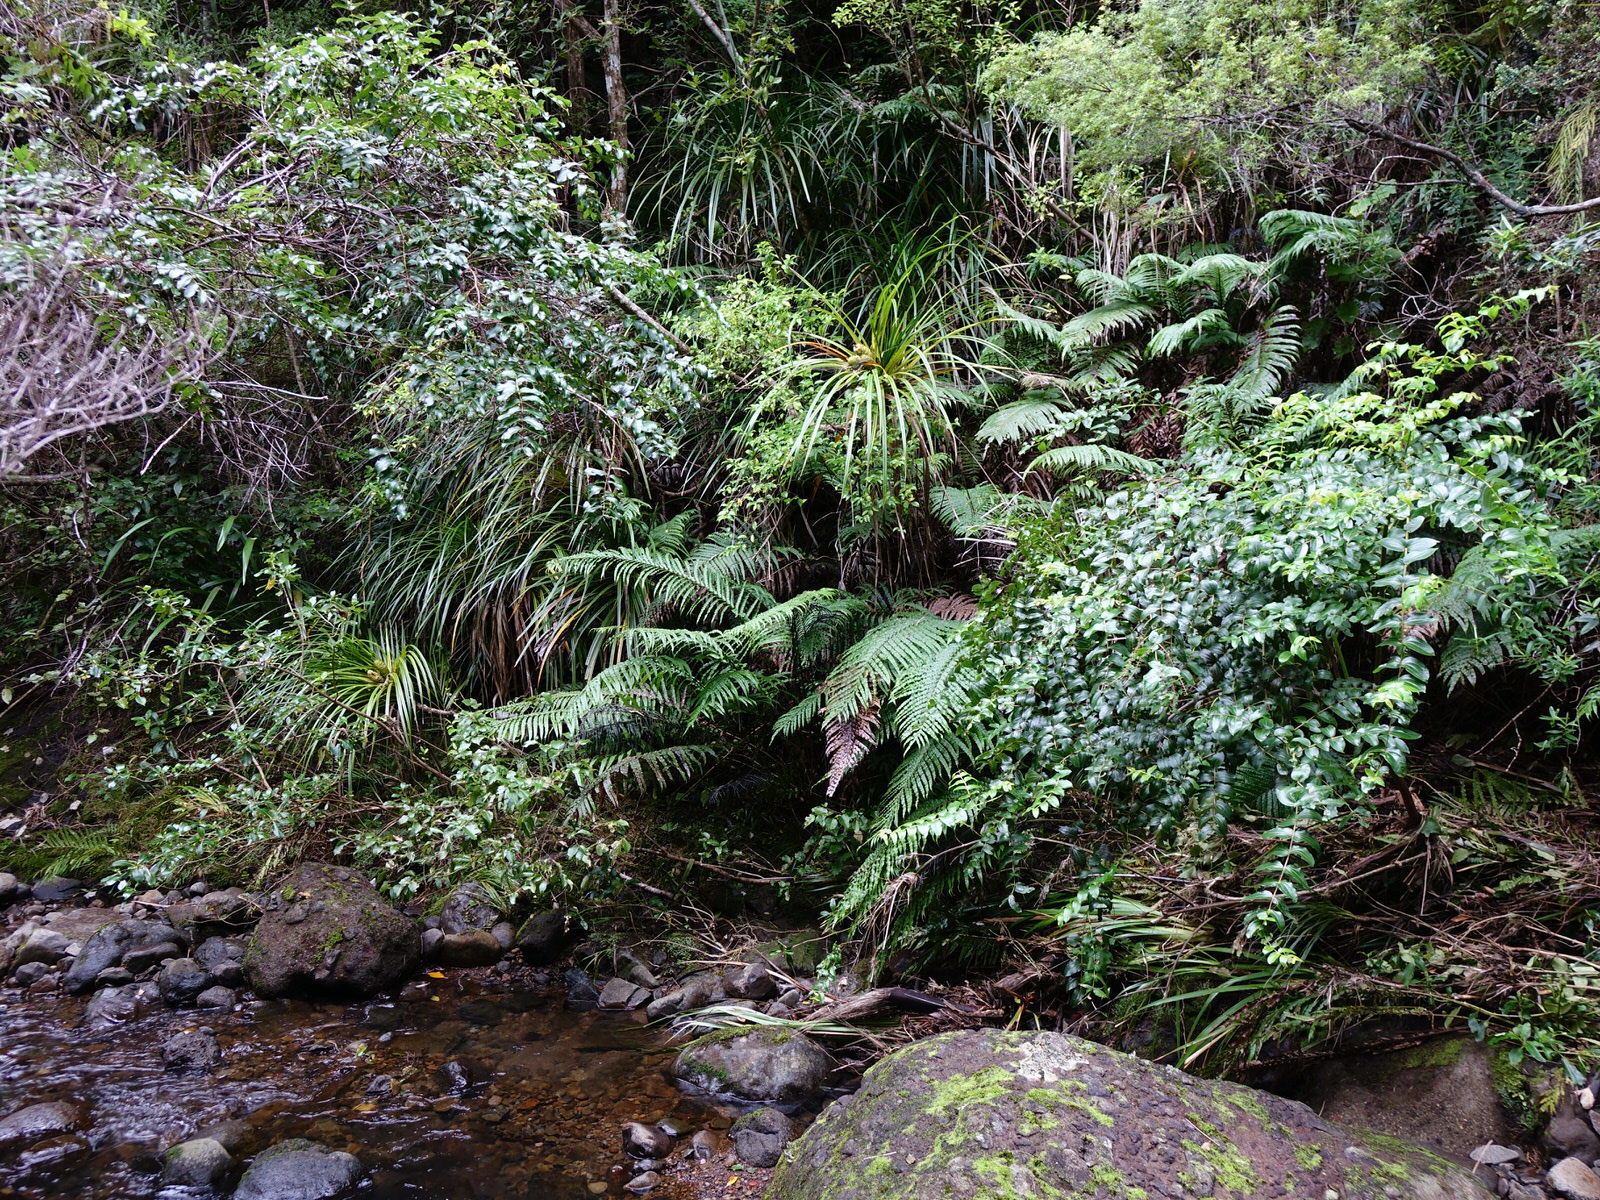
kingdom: Plantae
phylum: Tracheophyta
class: Liliopsida
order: Pandanales
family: Pandanaceae
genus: Freycinetia
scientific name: Freycinetia banksii
